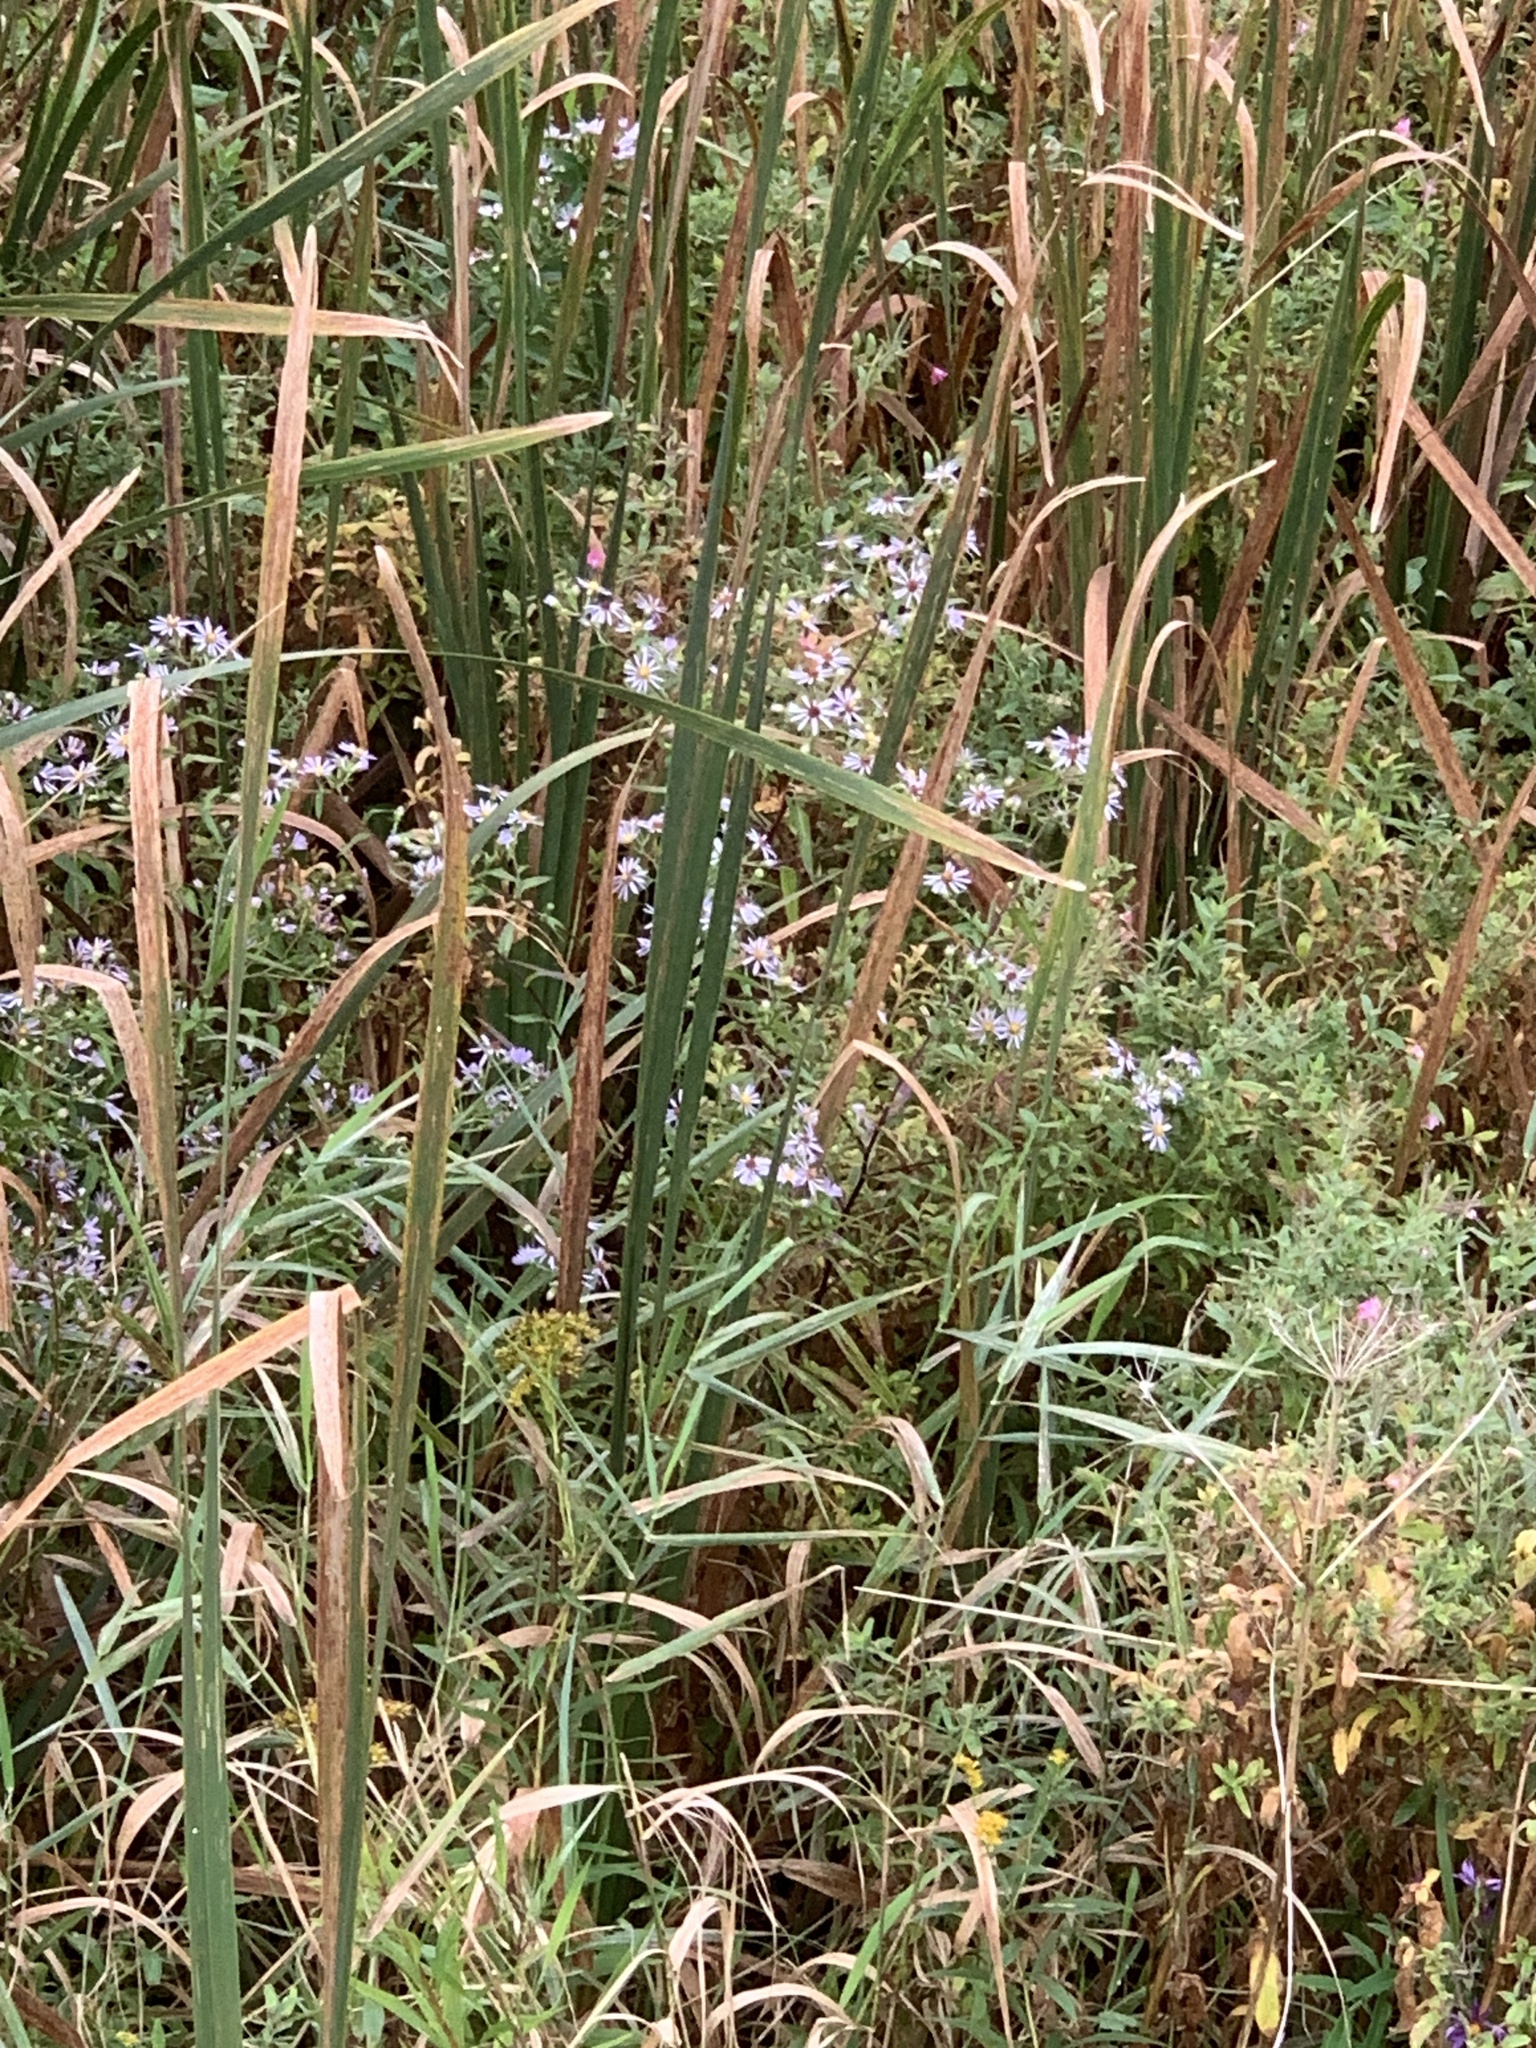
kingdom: Plantae
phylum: Tracheophyta
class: Magnoliopsida
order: Asterales
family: Asteraceae
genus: Symphyotrichum
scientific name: Symphyotrichum puniceum
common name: Bog aster
